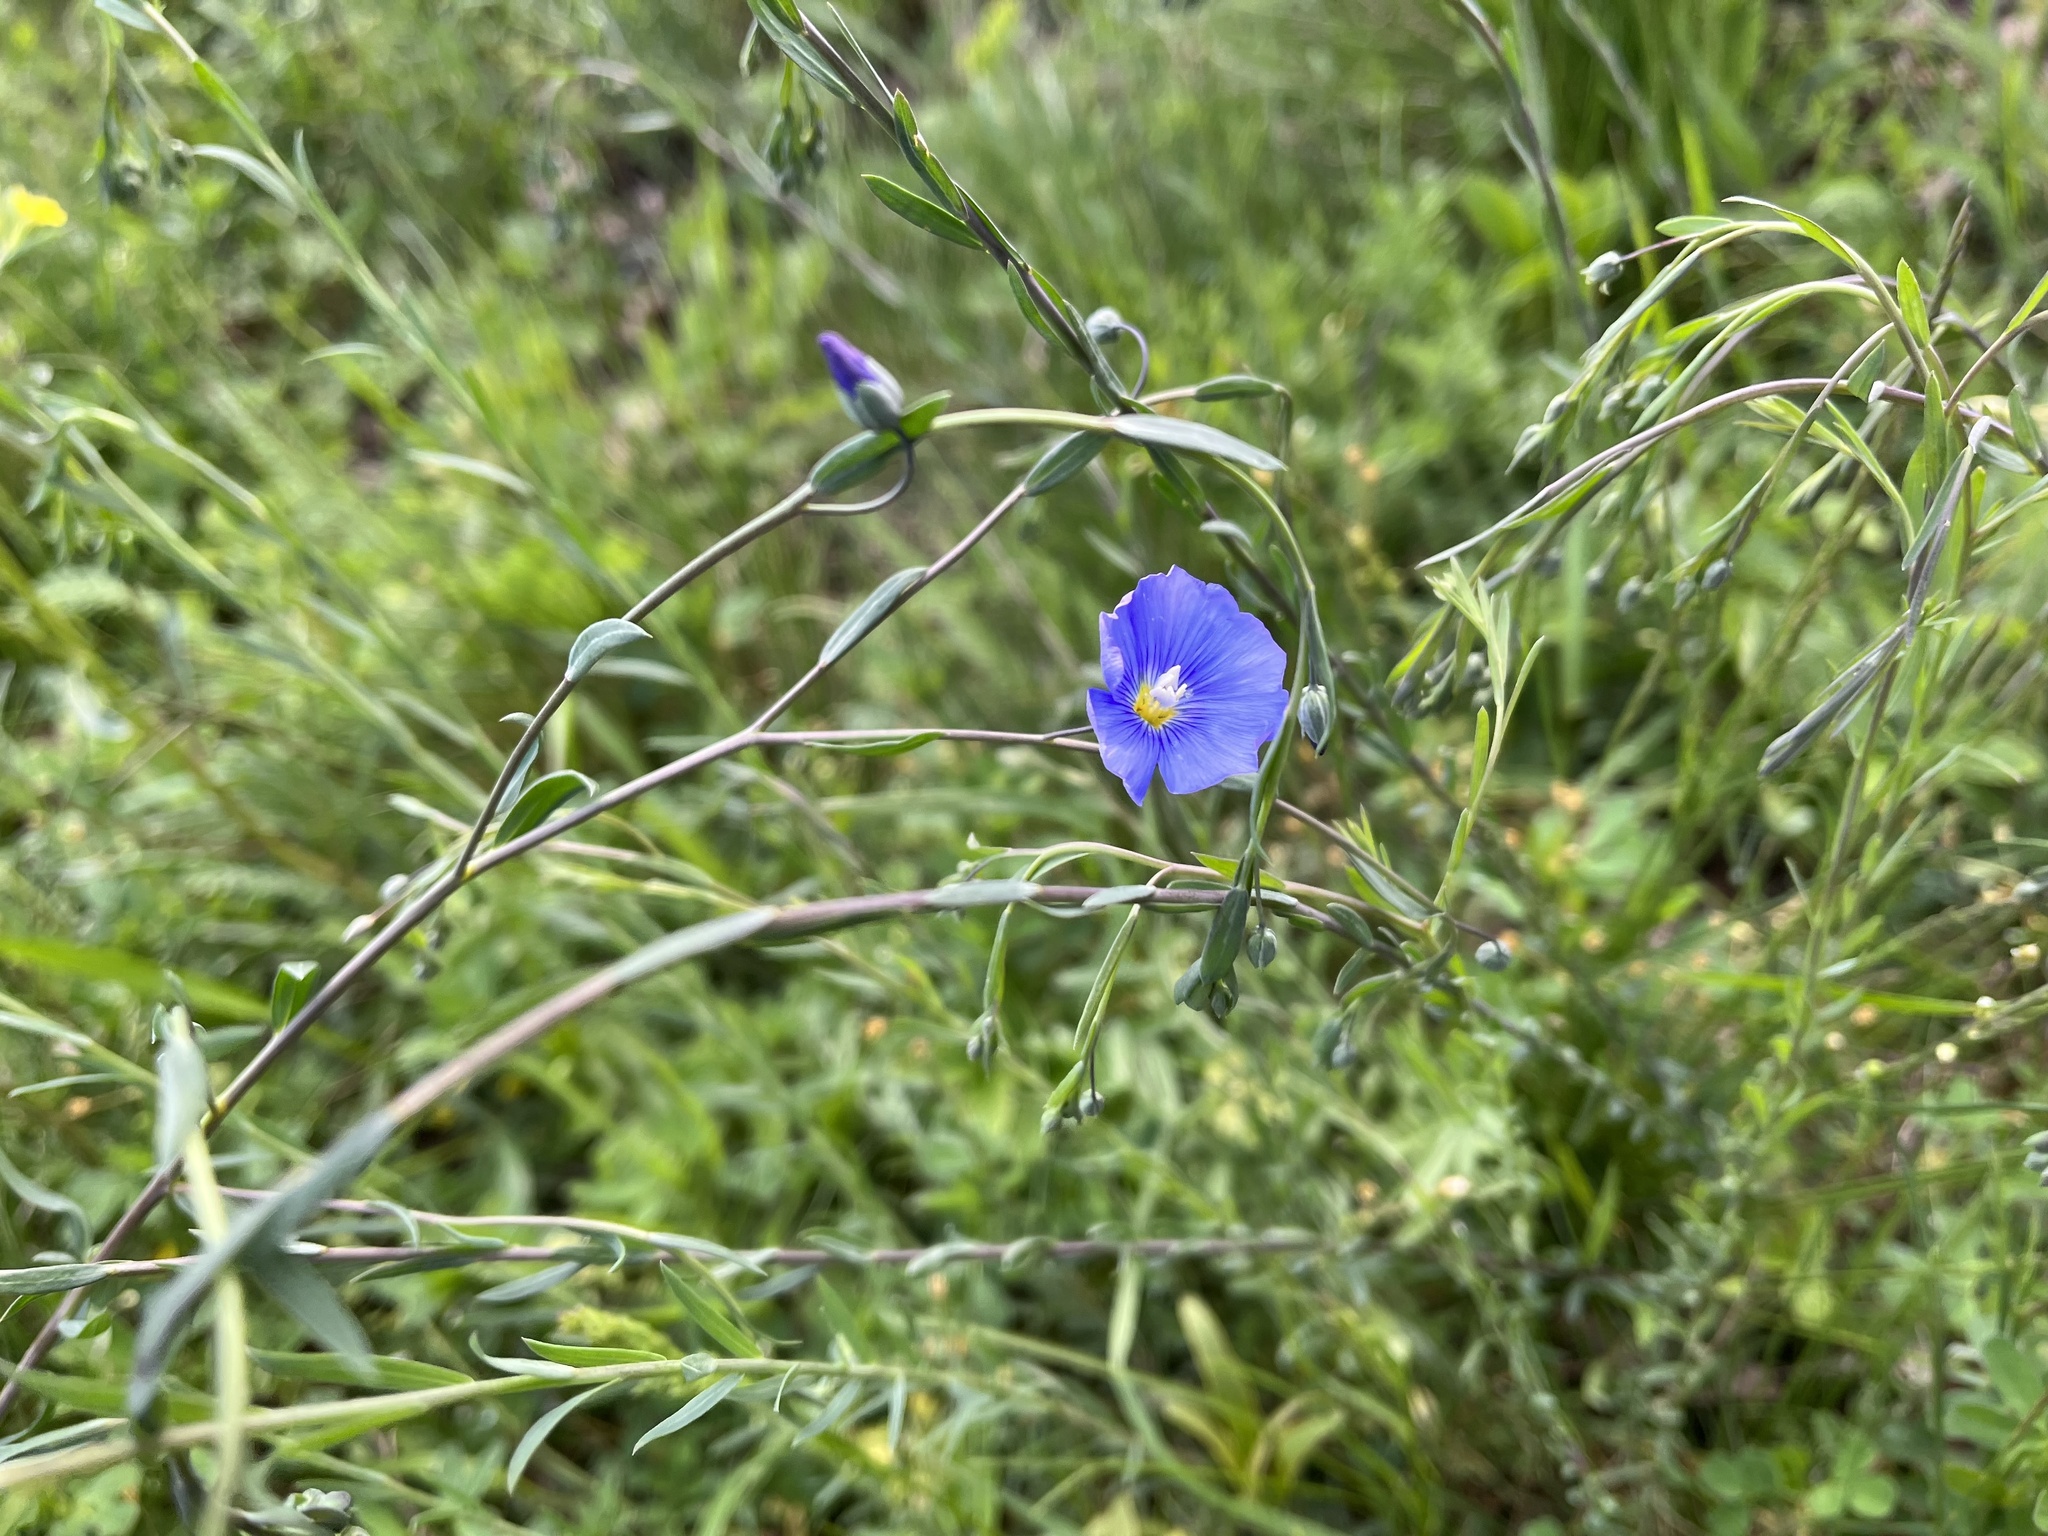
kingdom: Plantae
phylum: Tracheophyta
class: Magnoliopsida
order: Malpighiales
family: Linaceae
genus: Linum
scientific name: Linum austriacum
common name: Austrian flax
